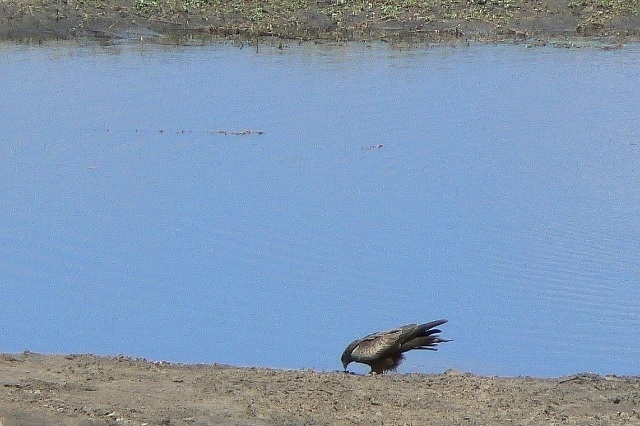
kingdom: Animalia
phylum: Chordata
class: Aves
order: Accipitriformes
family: Accipitridae
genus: Milvus
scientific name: Milvus migrans
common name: Black kite
